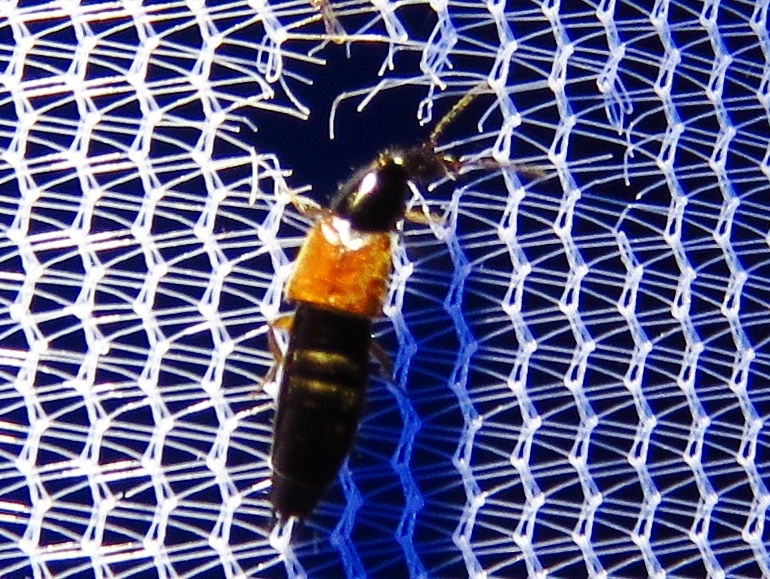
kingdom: Animalia
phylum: Arthropoda
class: Insecta
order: Coleoptera
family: Staphylinidae
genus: Philonthus
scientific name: Philonthus rufulus
